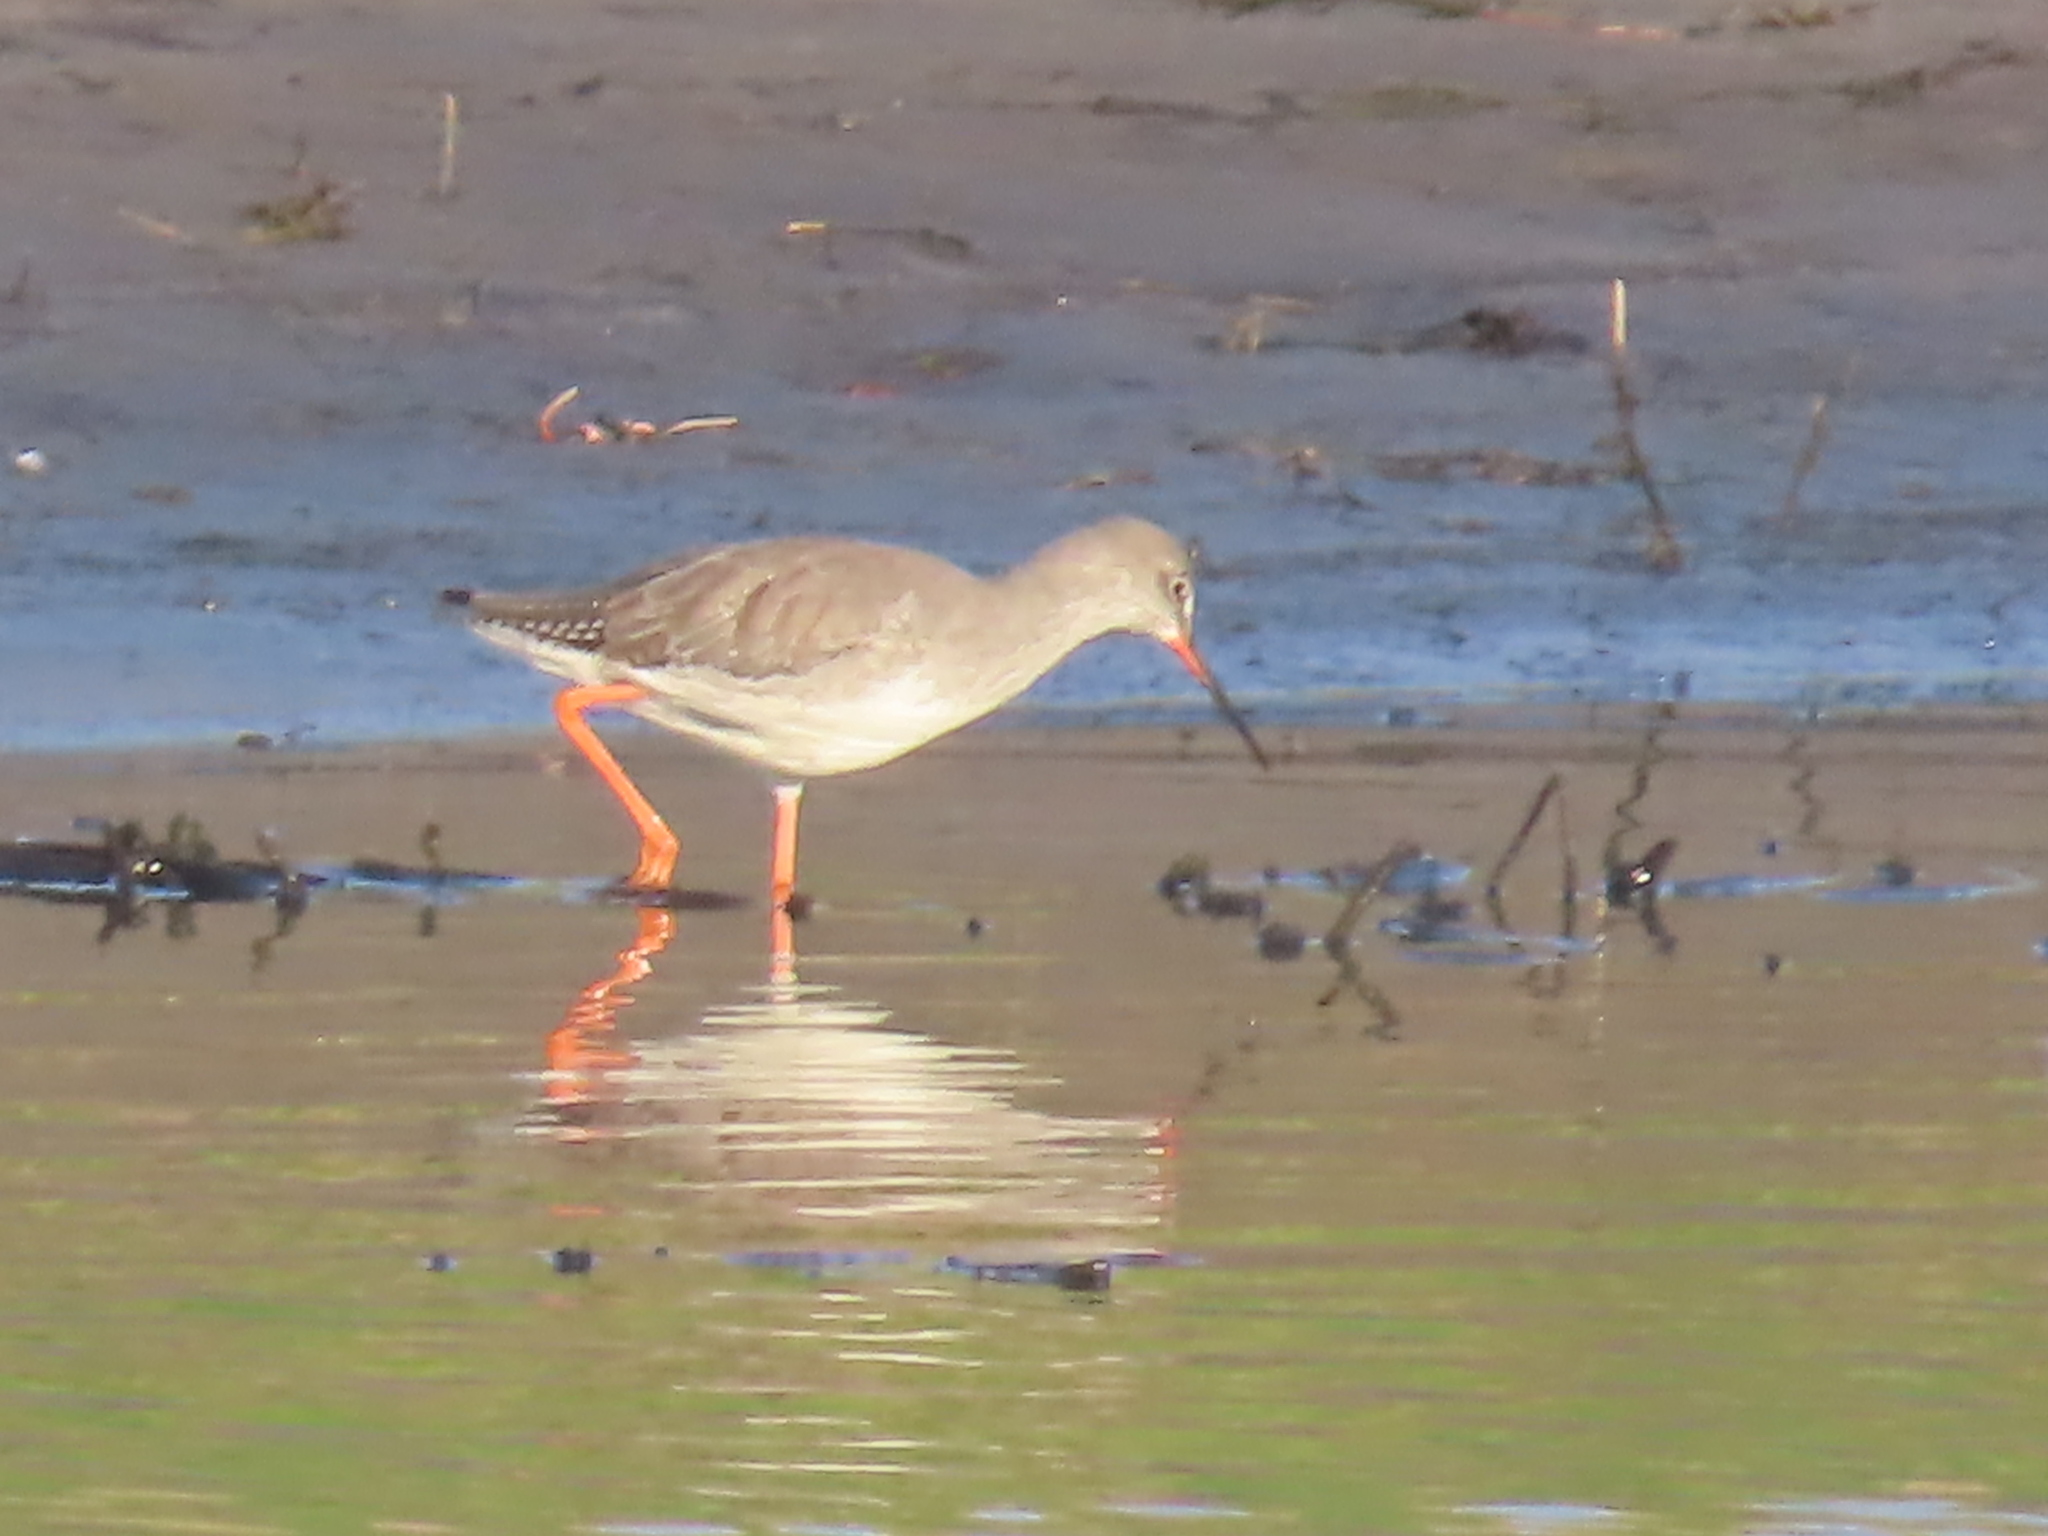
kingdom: Animalia
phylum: Chordata
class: Aves
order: Charadriiformes
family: Scolopacidae
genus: Tringa
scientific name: Tringa erythropus
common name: Spotted redshank
